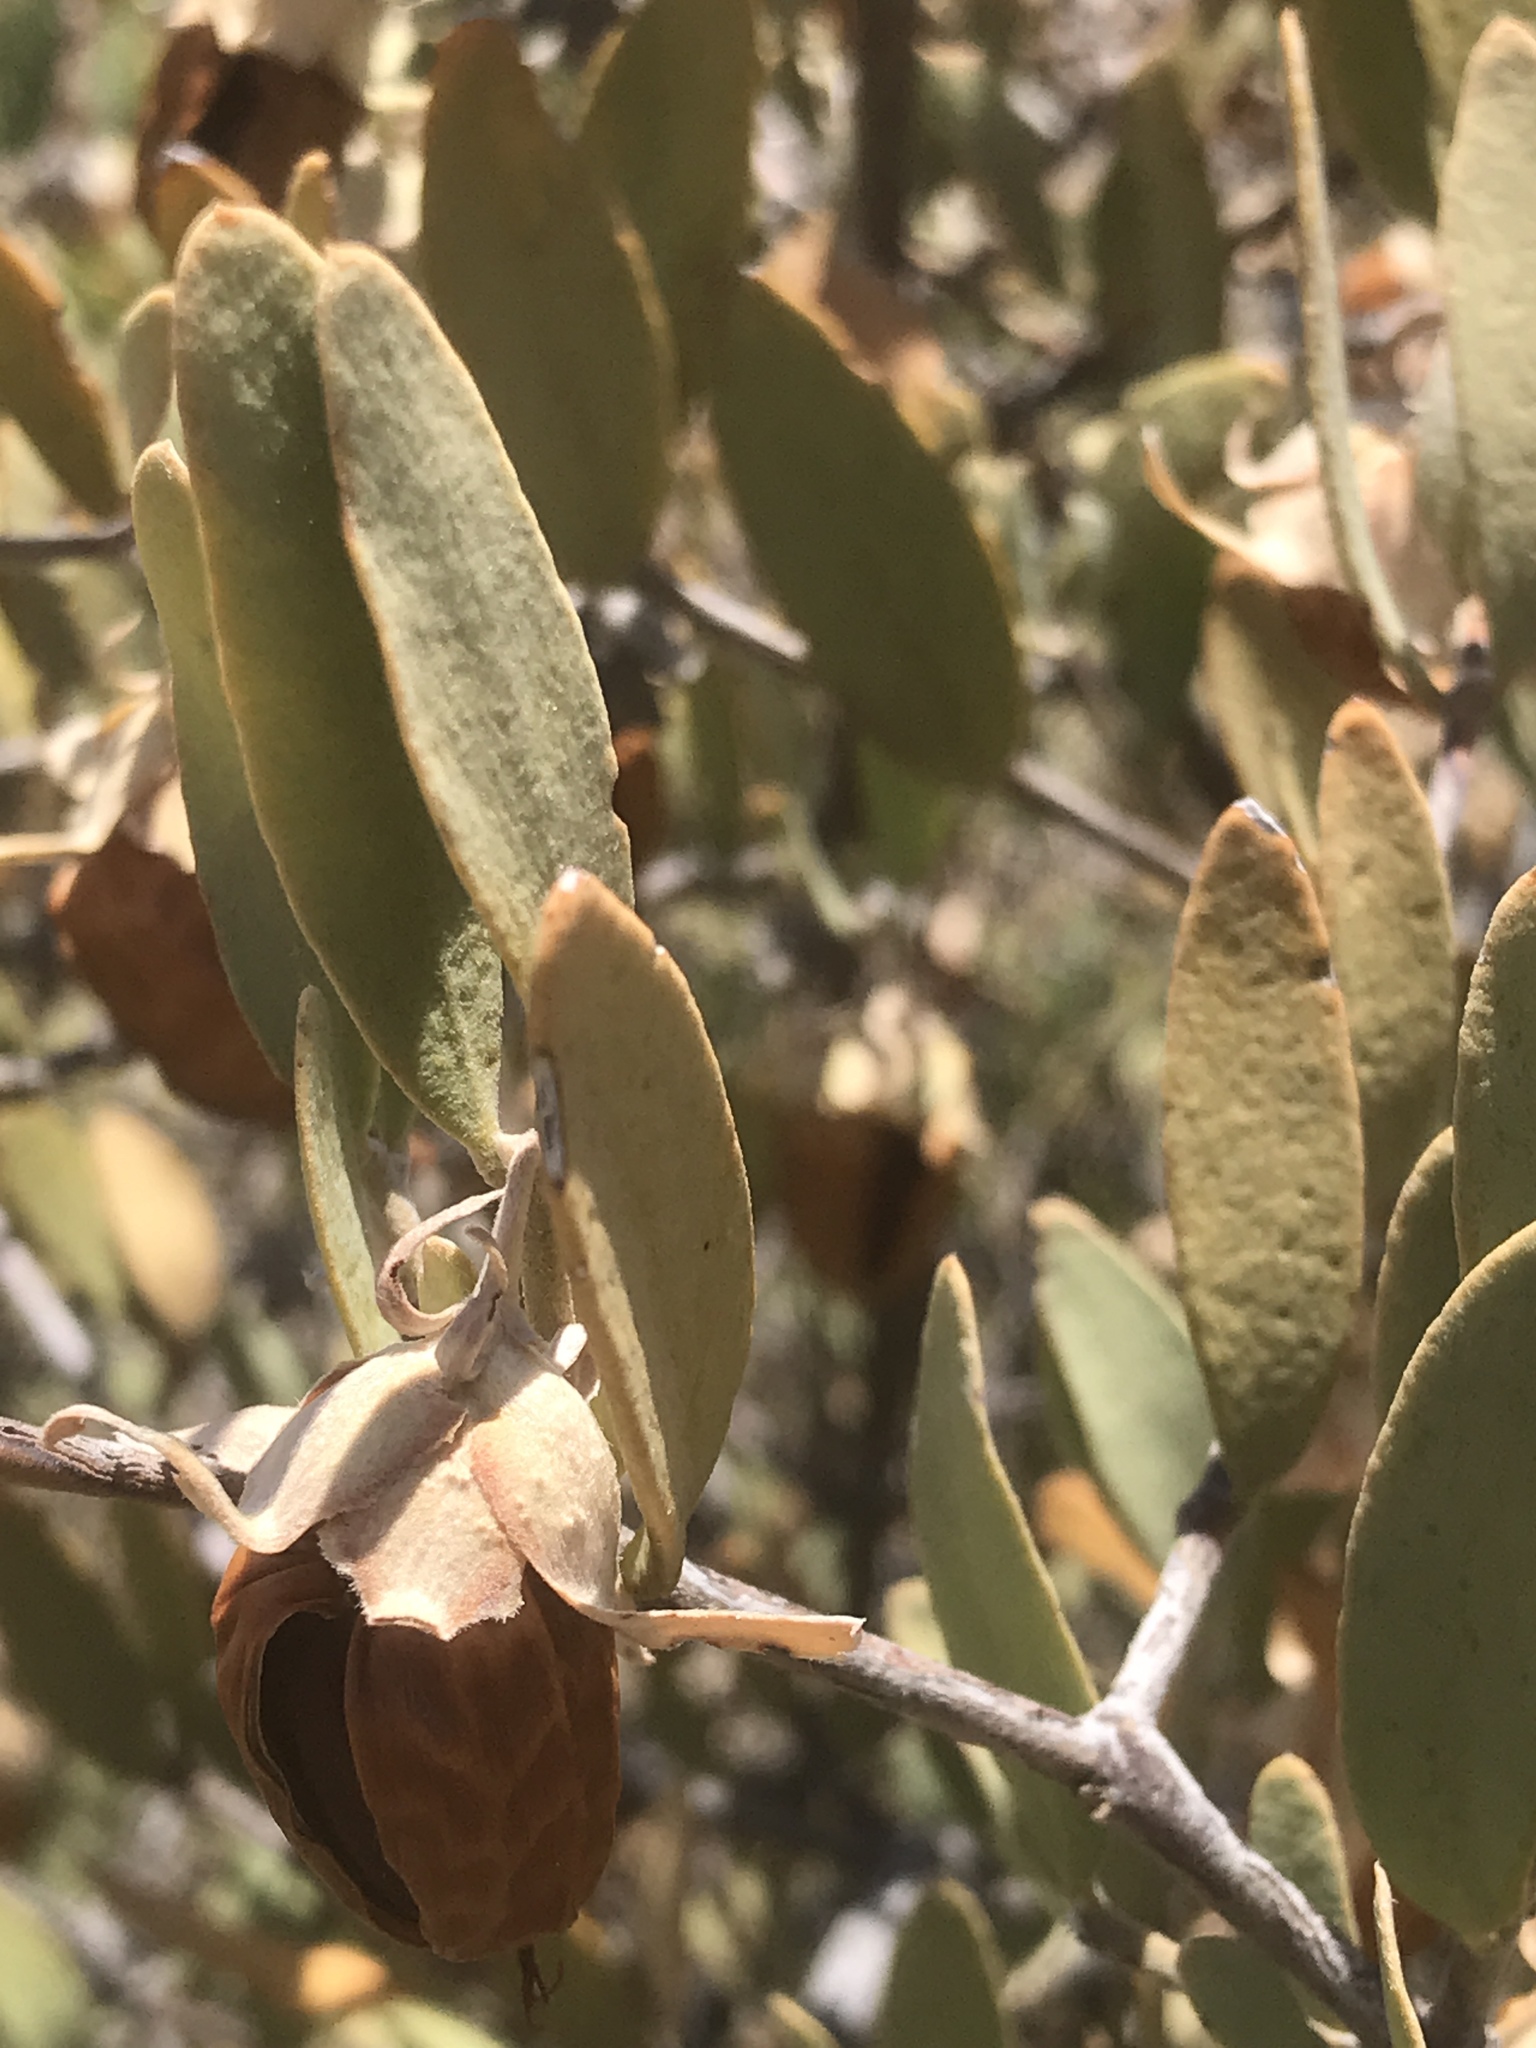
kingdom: Plantae
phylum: Tracheophyta
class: Magnoliopsida
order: Caryophyllales
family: Simmondsiaceae
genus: Simmondsia
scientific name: Simmondsia chinensis
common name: Jojoba
